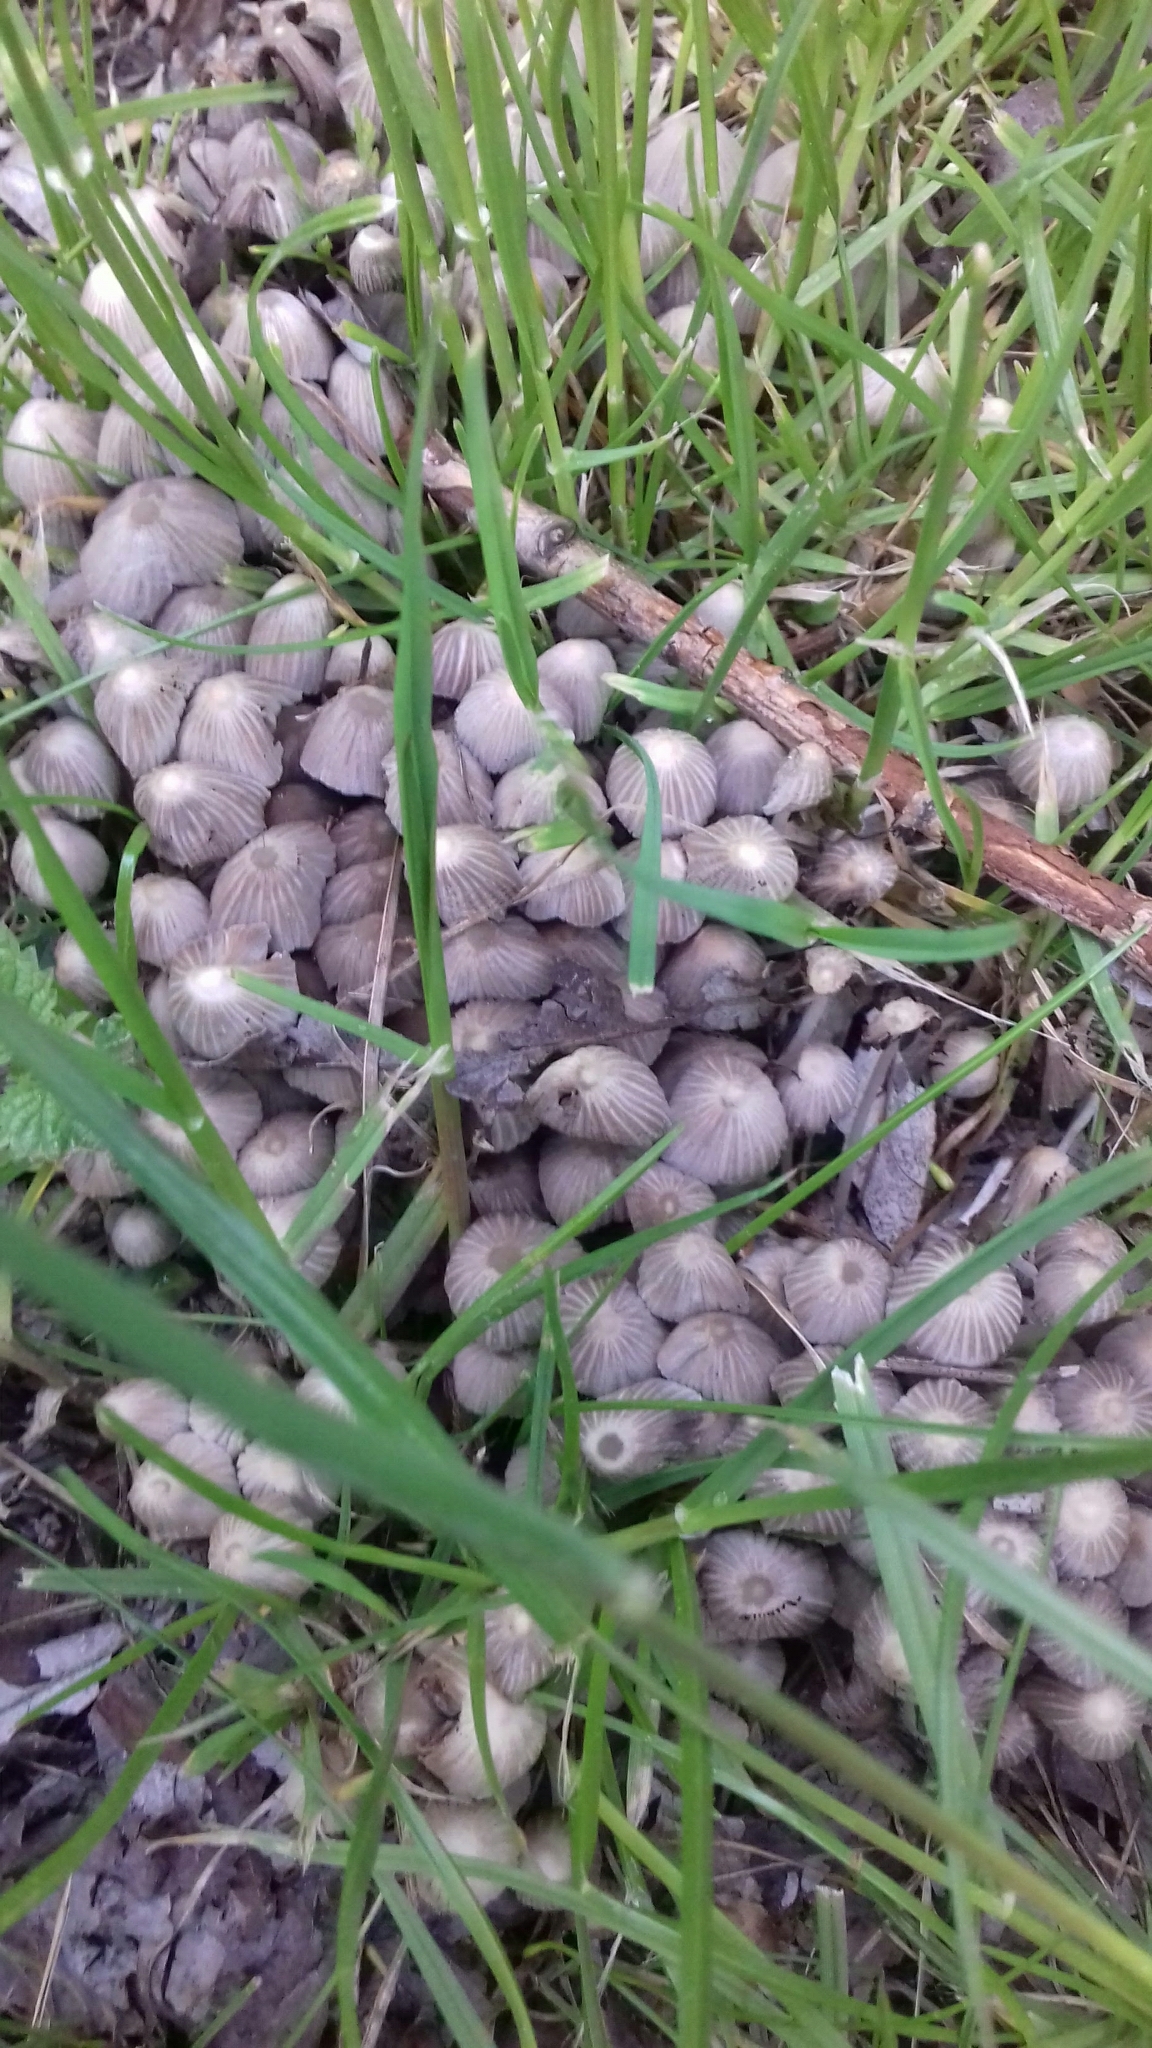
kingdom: Fungi
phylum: Basidiomycota
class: Agaricomycetes
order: Agaricales
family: Psathyrellaceae
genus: Coprinellus
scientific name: Coprinellus disseminatus
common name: Fairies' bonnets
